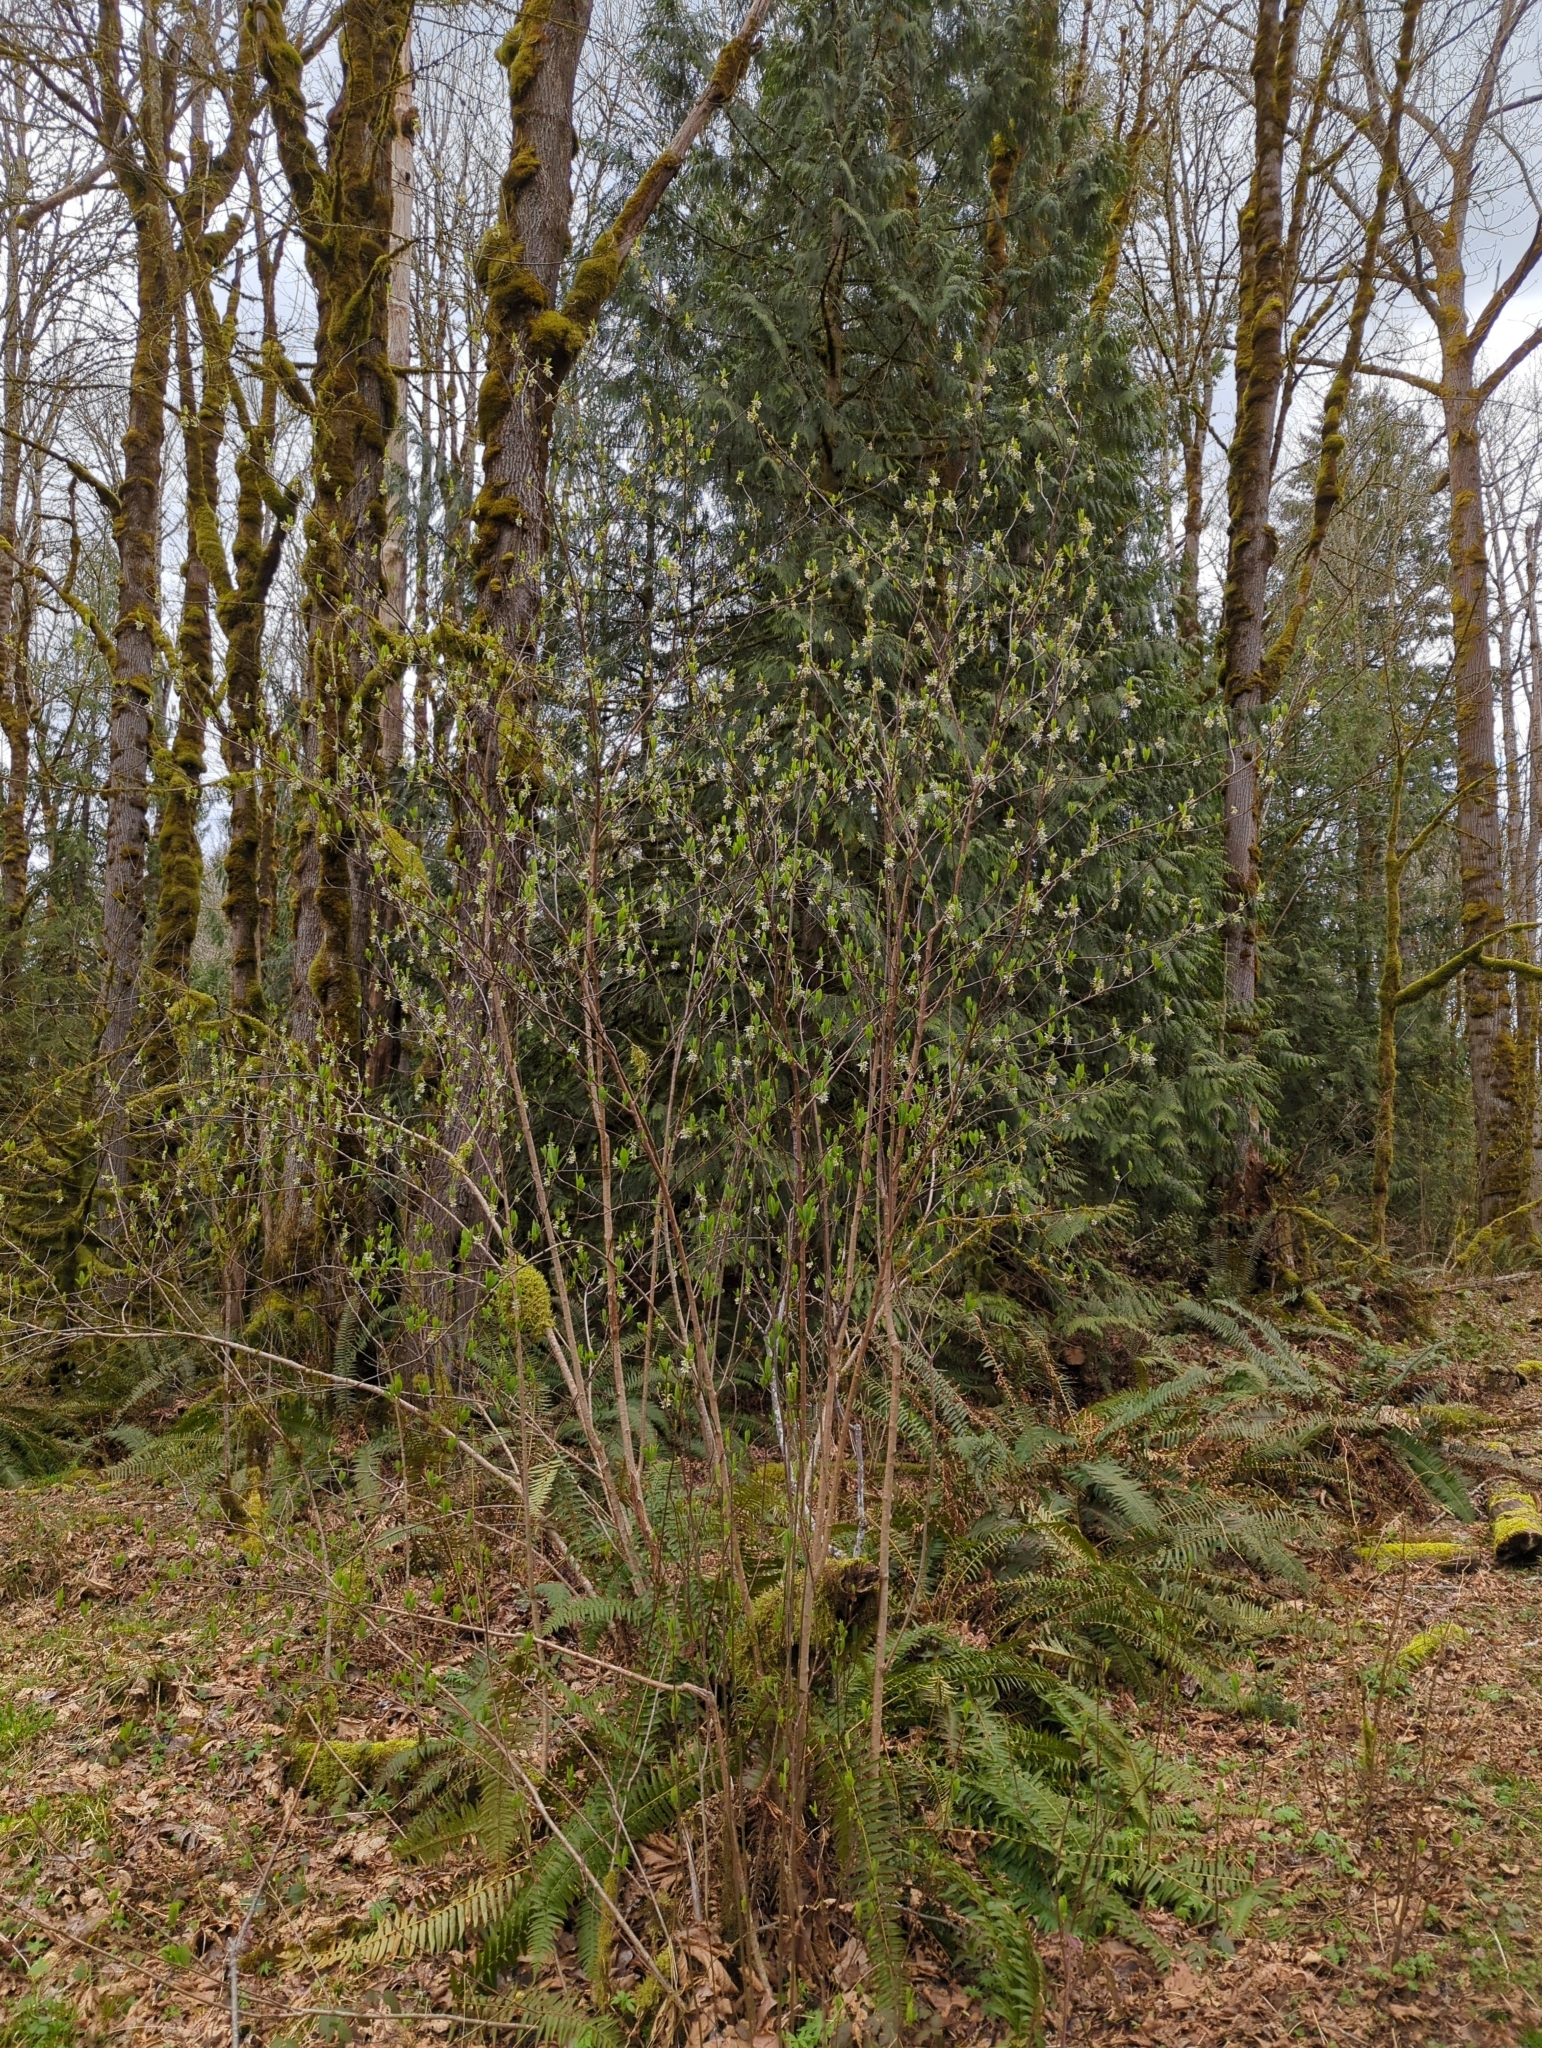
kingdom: Plantae
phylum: Tracheophyta
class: Magnoliopsida
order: Rosales
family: Rosaceae
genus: Oemleria
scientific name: Oemleria cerasiformis
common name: Osoberry
